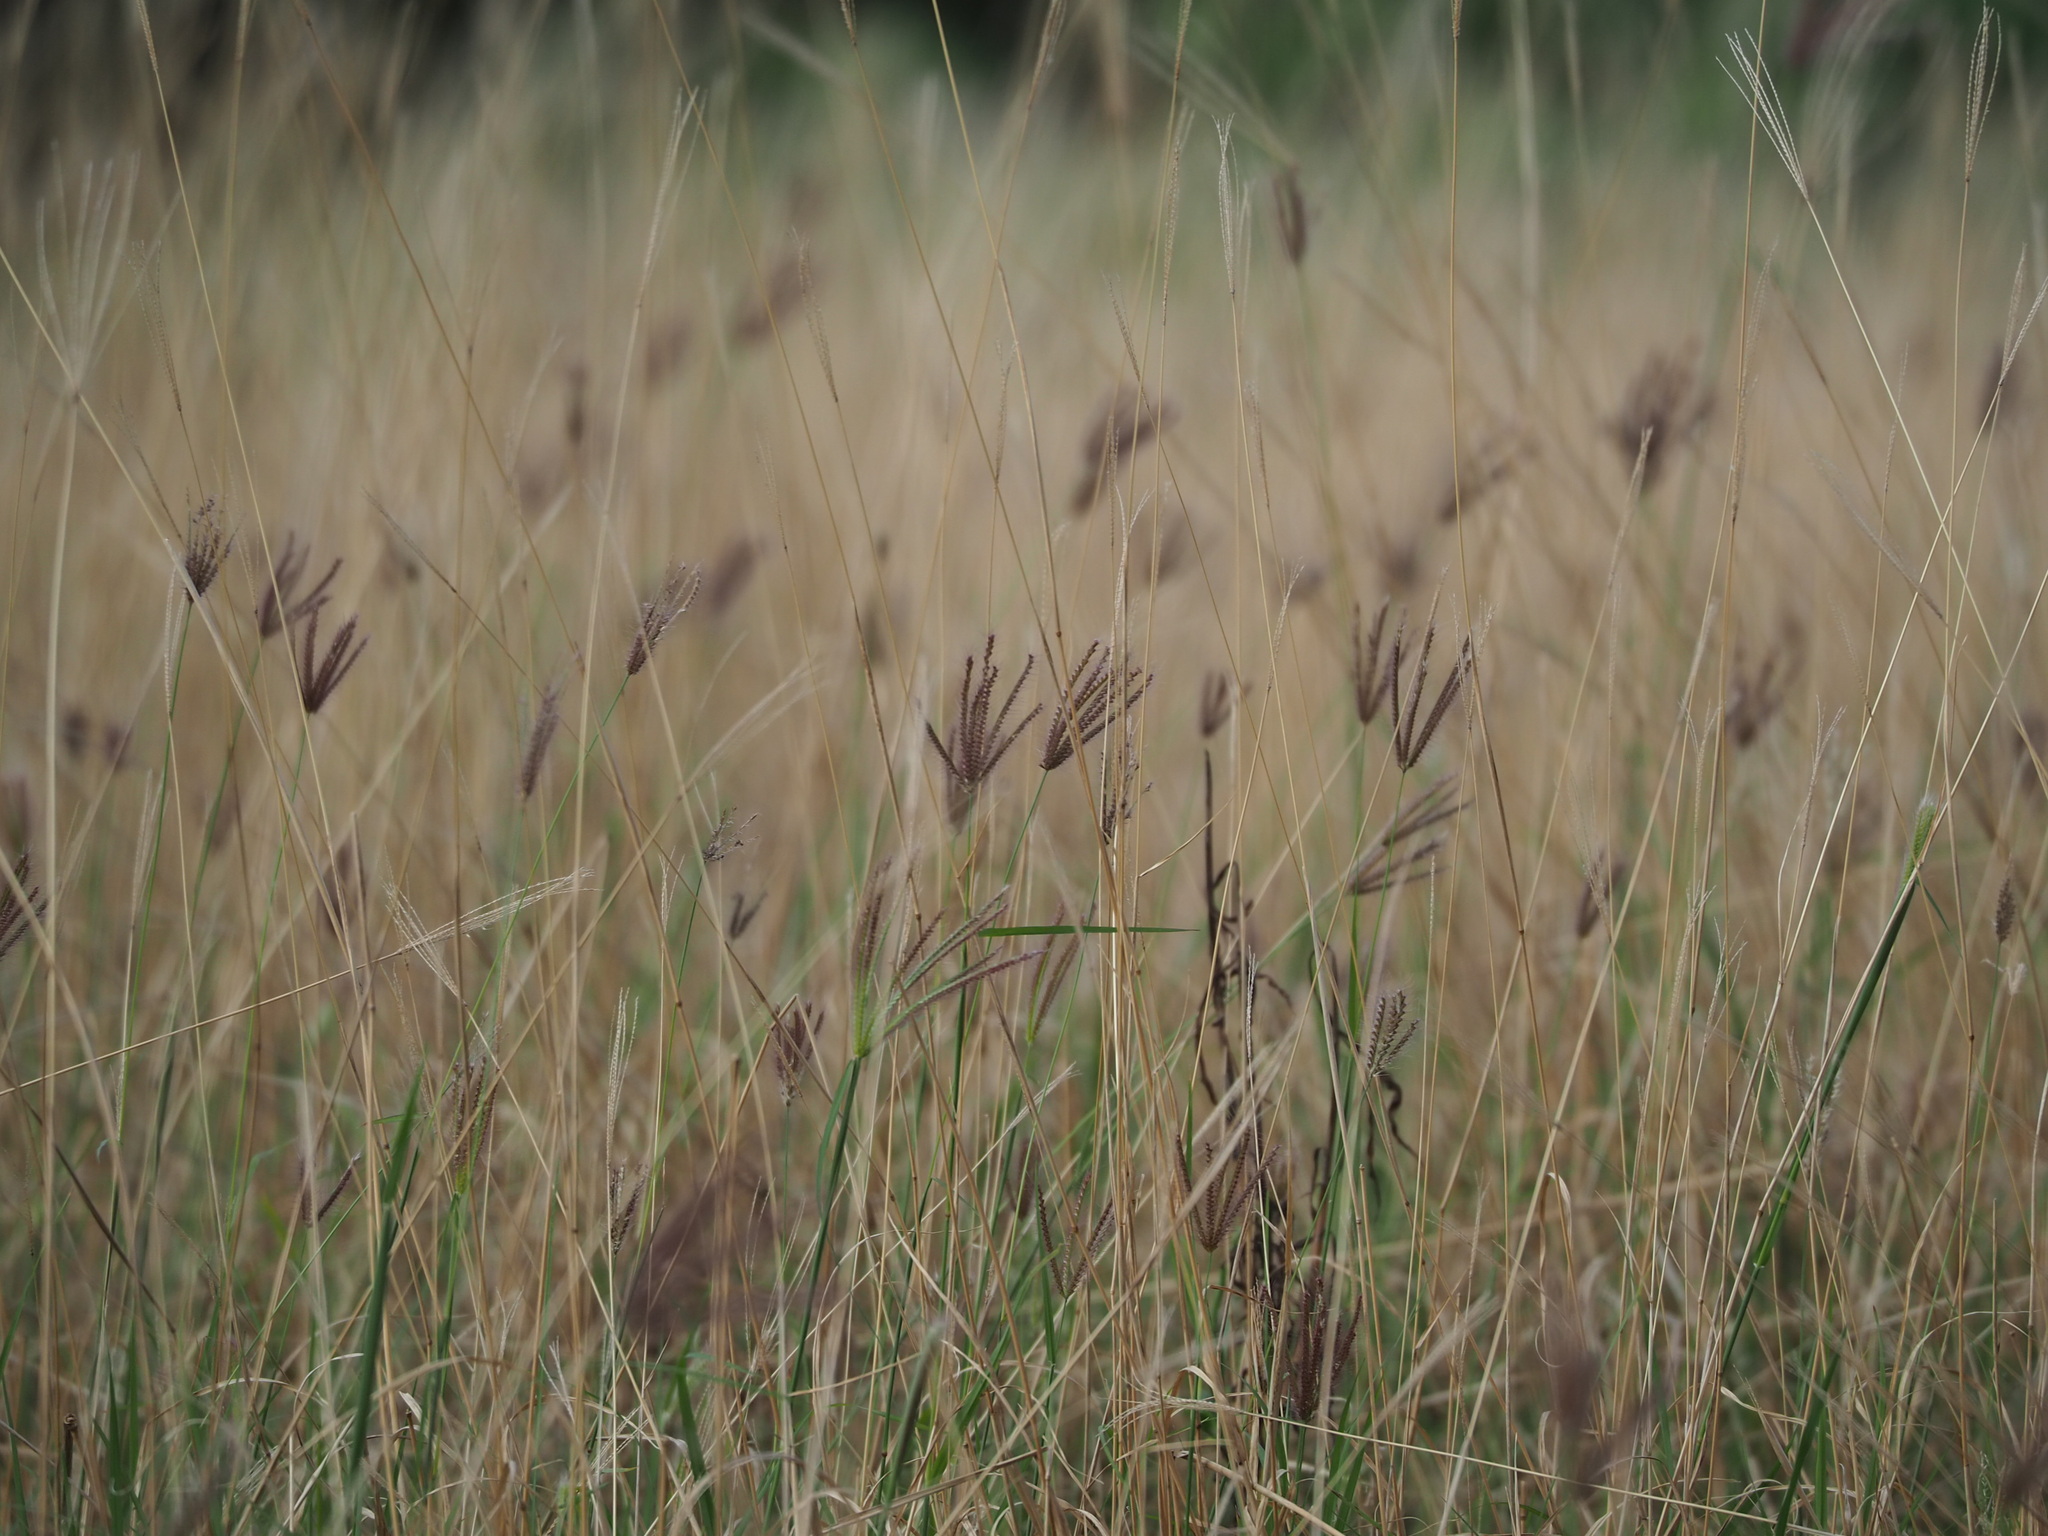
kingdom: Plantae
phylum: Tracheophyta
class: Liliopsida
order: Poales
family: Poaceae
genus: Chloris
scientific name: Chloris barbata
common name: Swollen fingergrass
